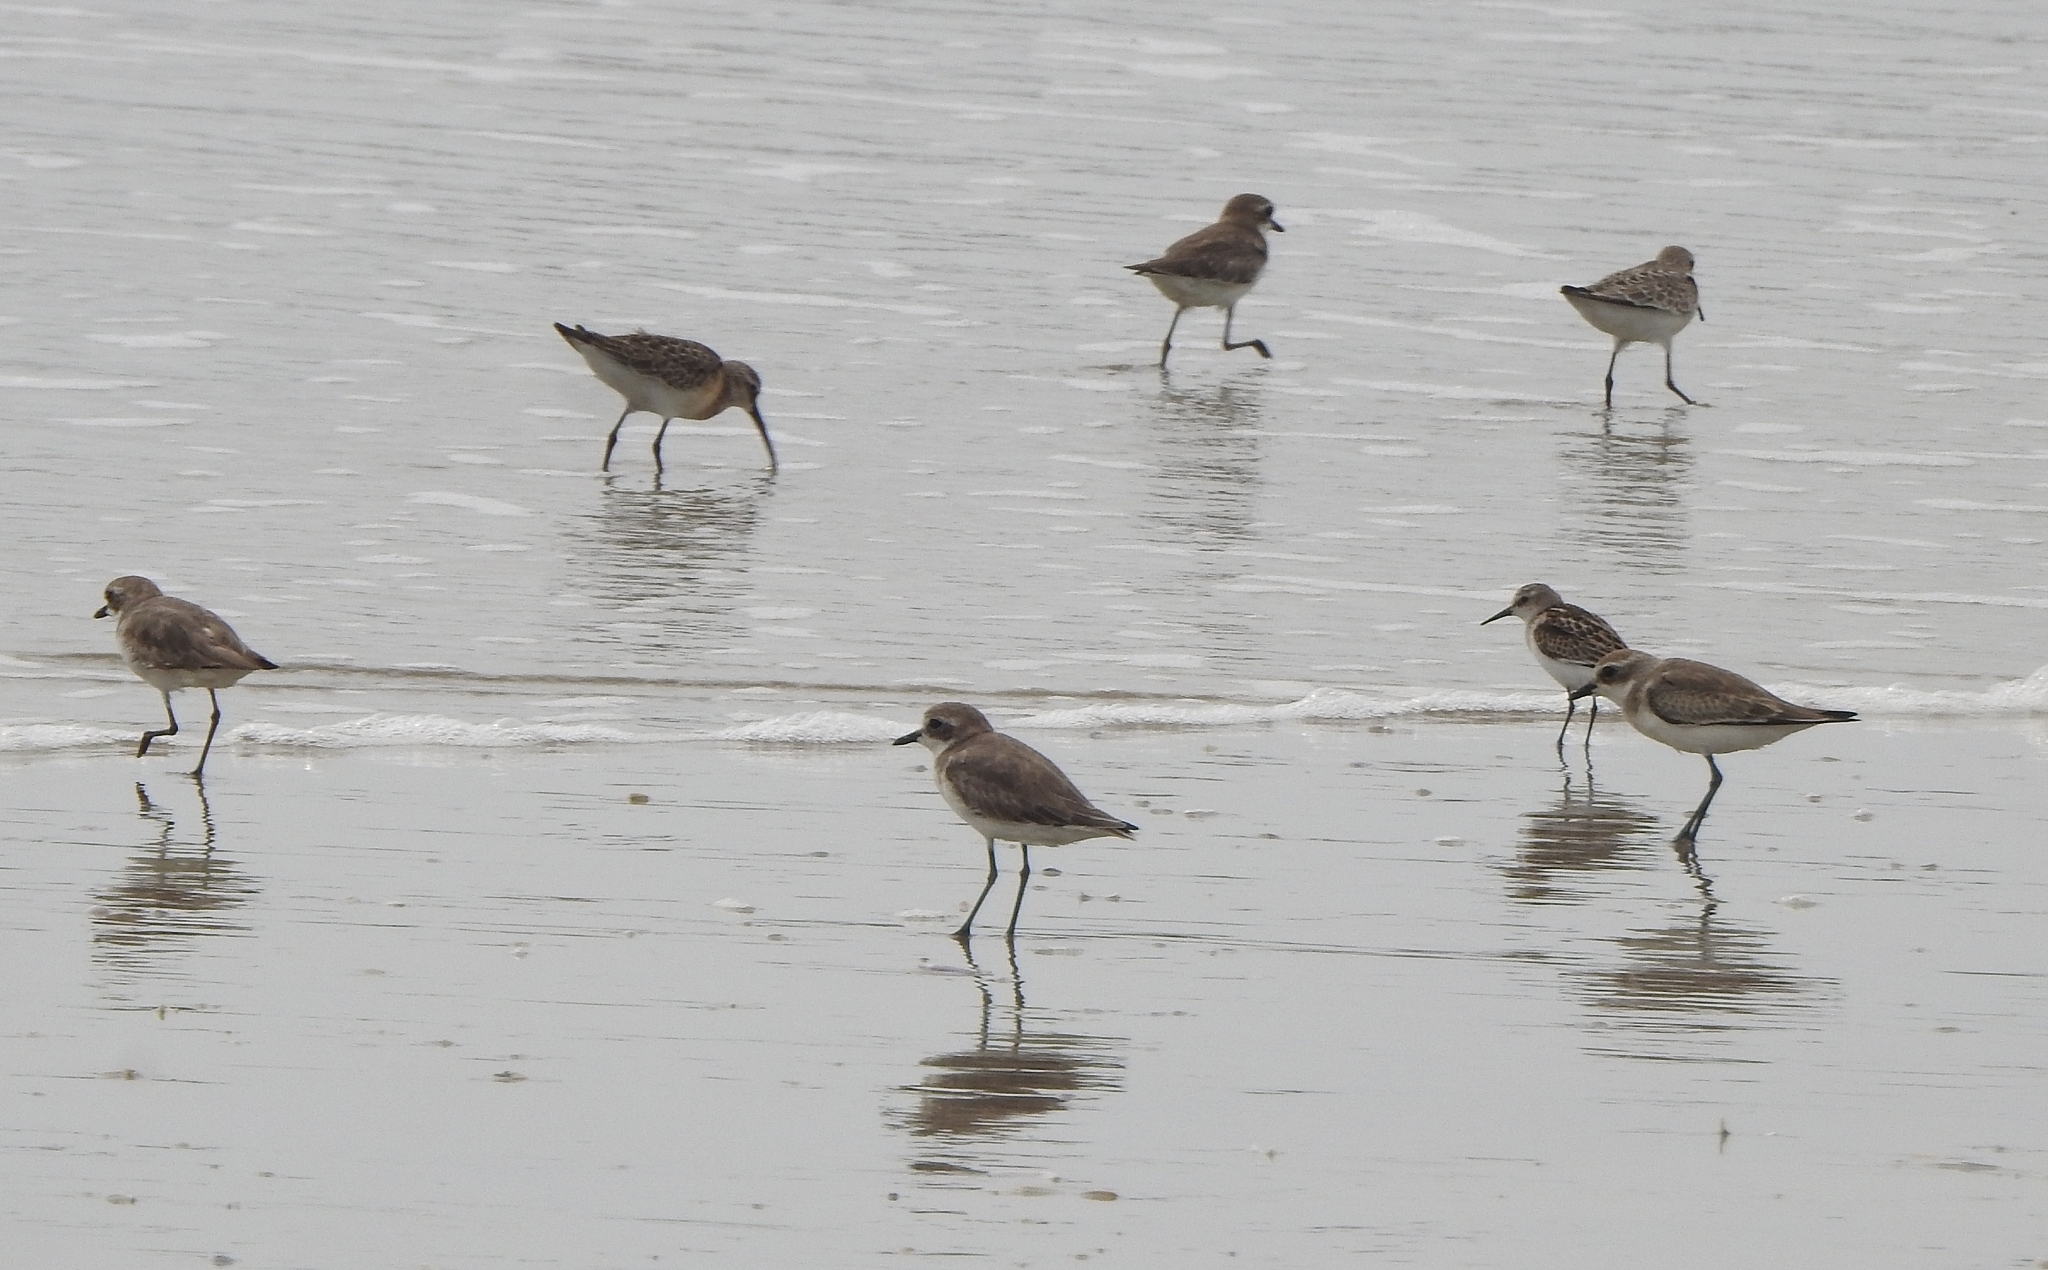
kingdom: Animalia
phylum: Chordata
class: Aves
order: Charadriiformes
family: Scolopacidae
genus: Calidris
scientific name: Calidris ferruginea
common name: Curlew sandpiper
